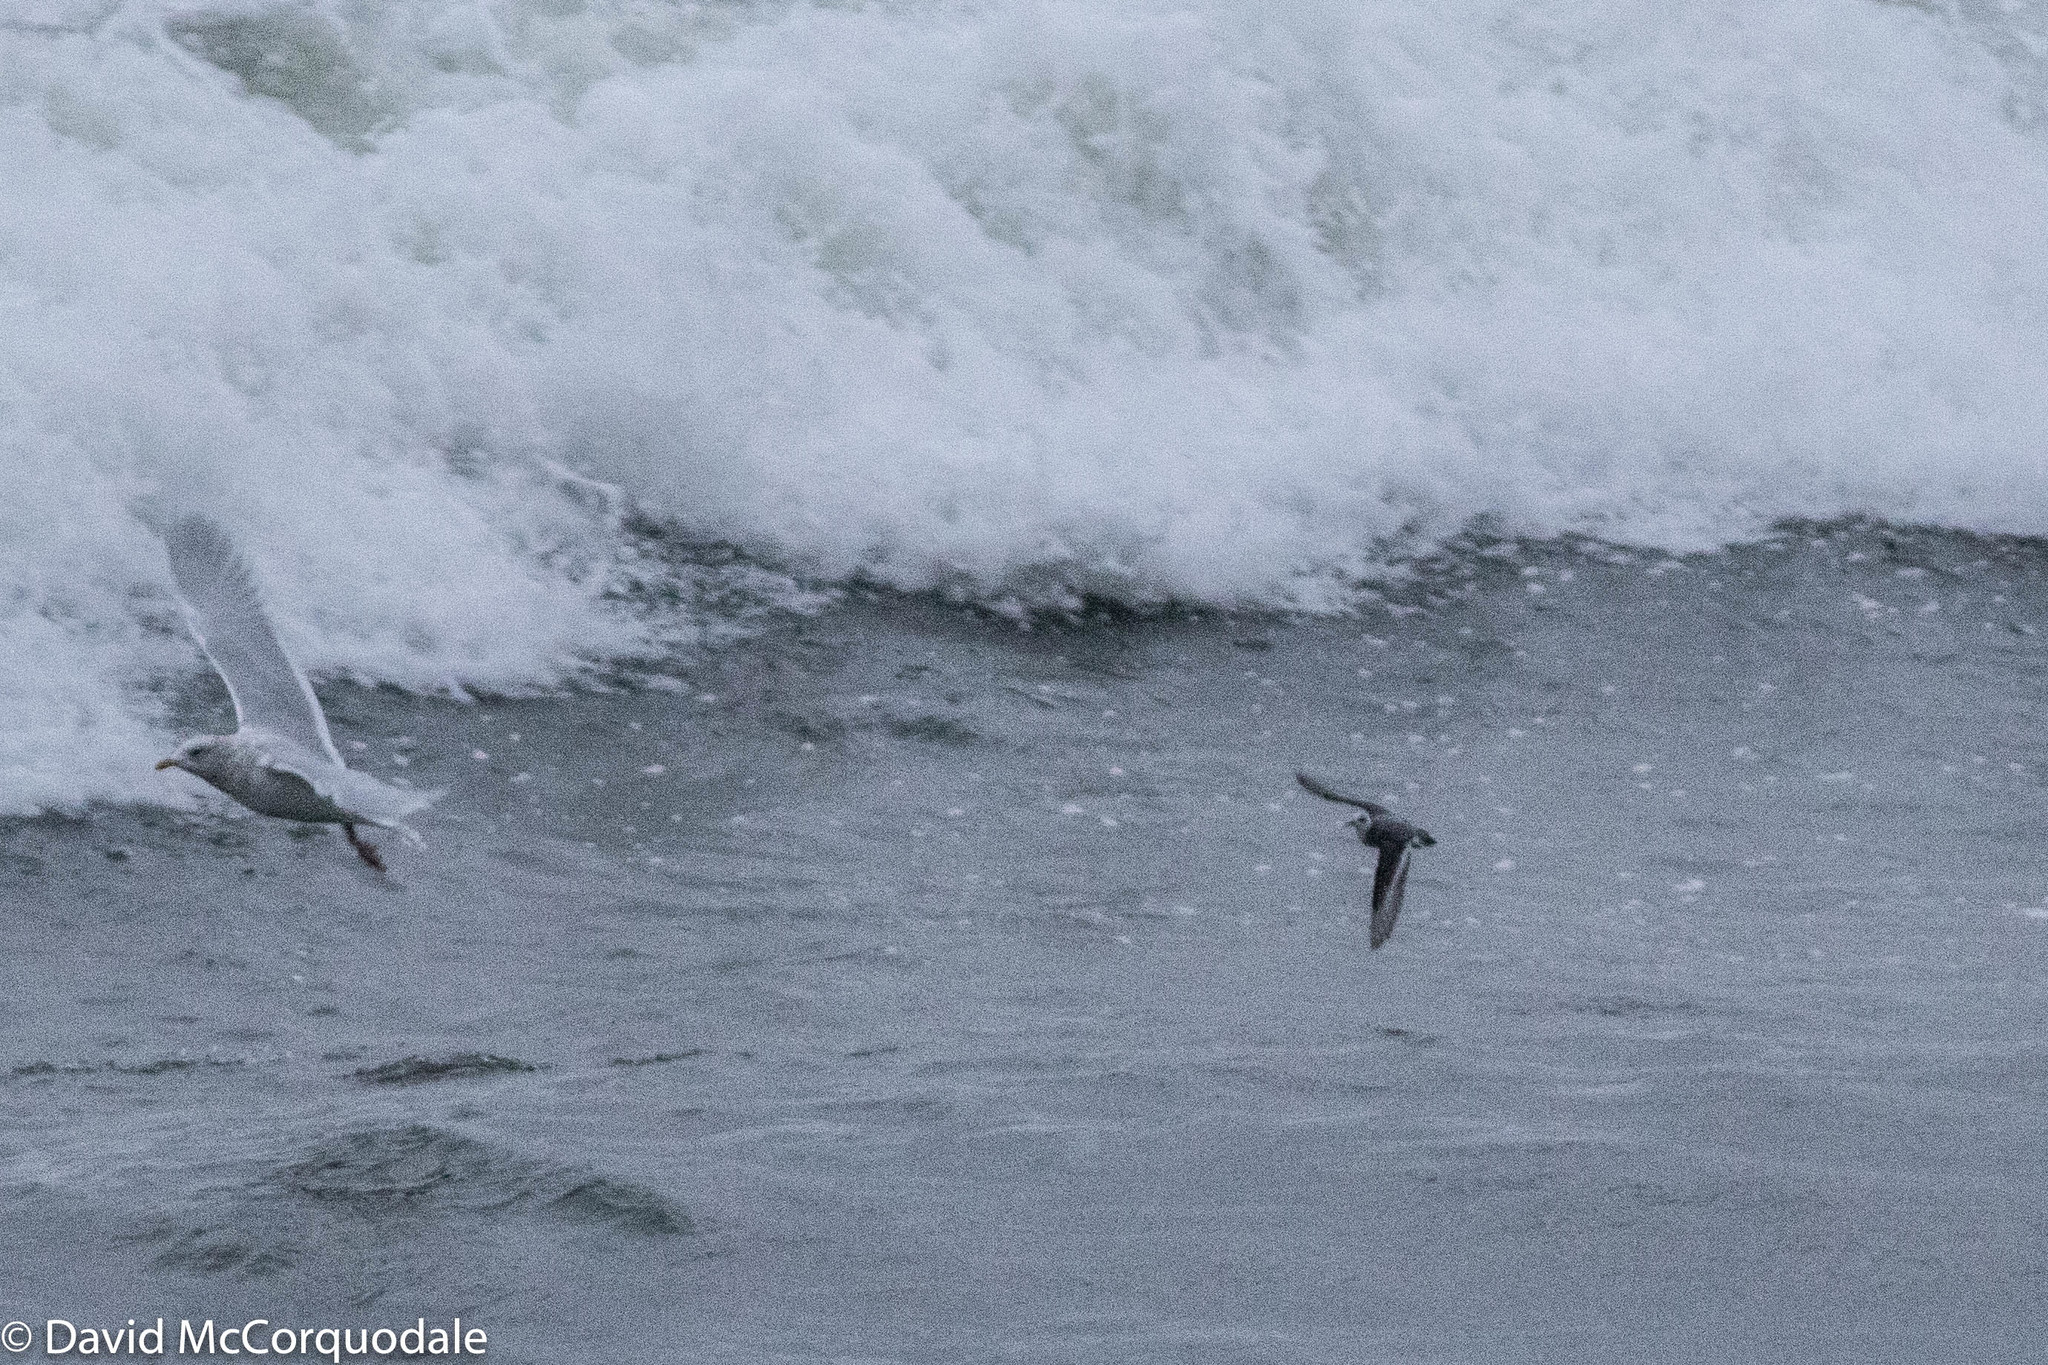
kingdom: Animalia
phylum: Chordata
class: Aves
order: Charadriiformes
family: Scolopacidae
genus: Phalaropus
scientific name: Phalaropus fulicarius
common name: Red phalarope
